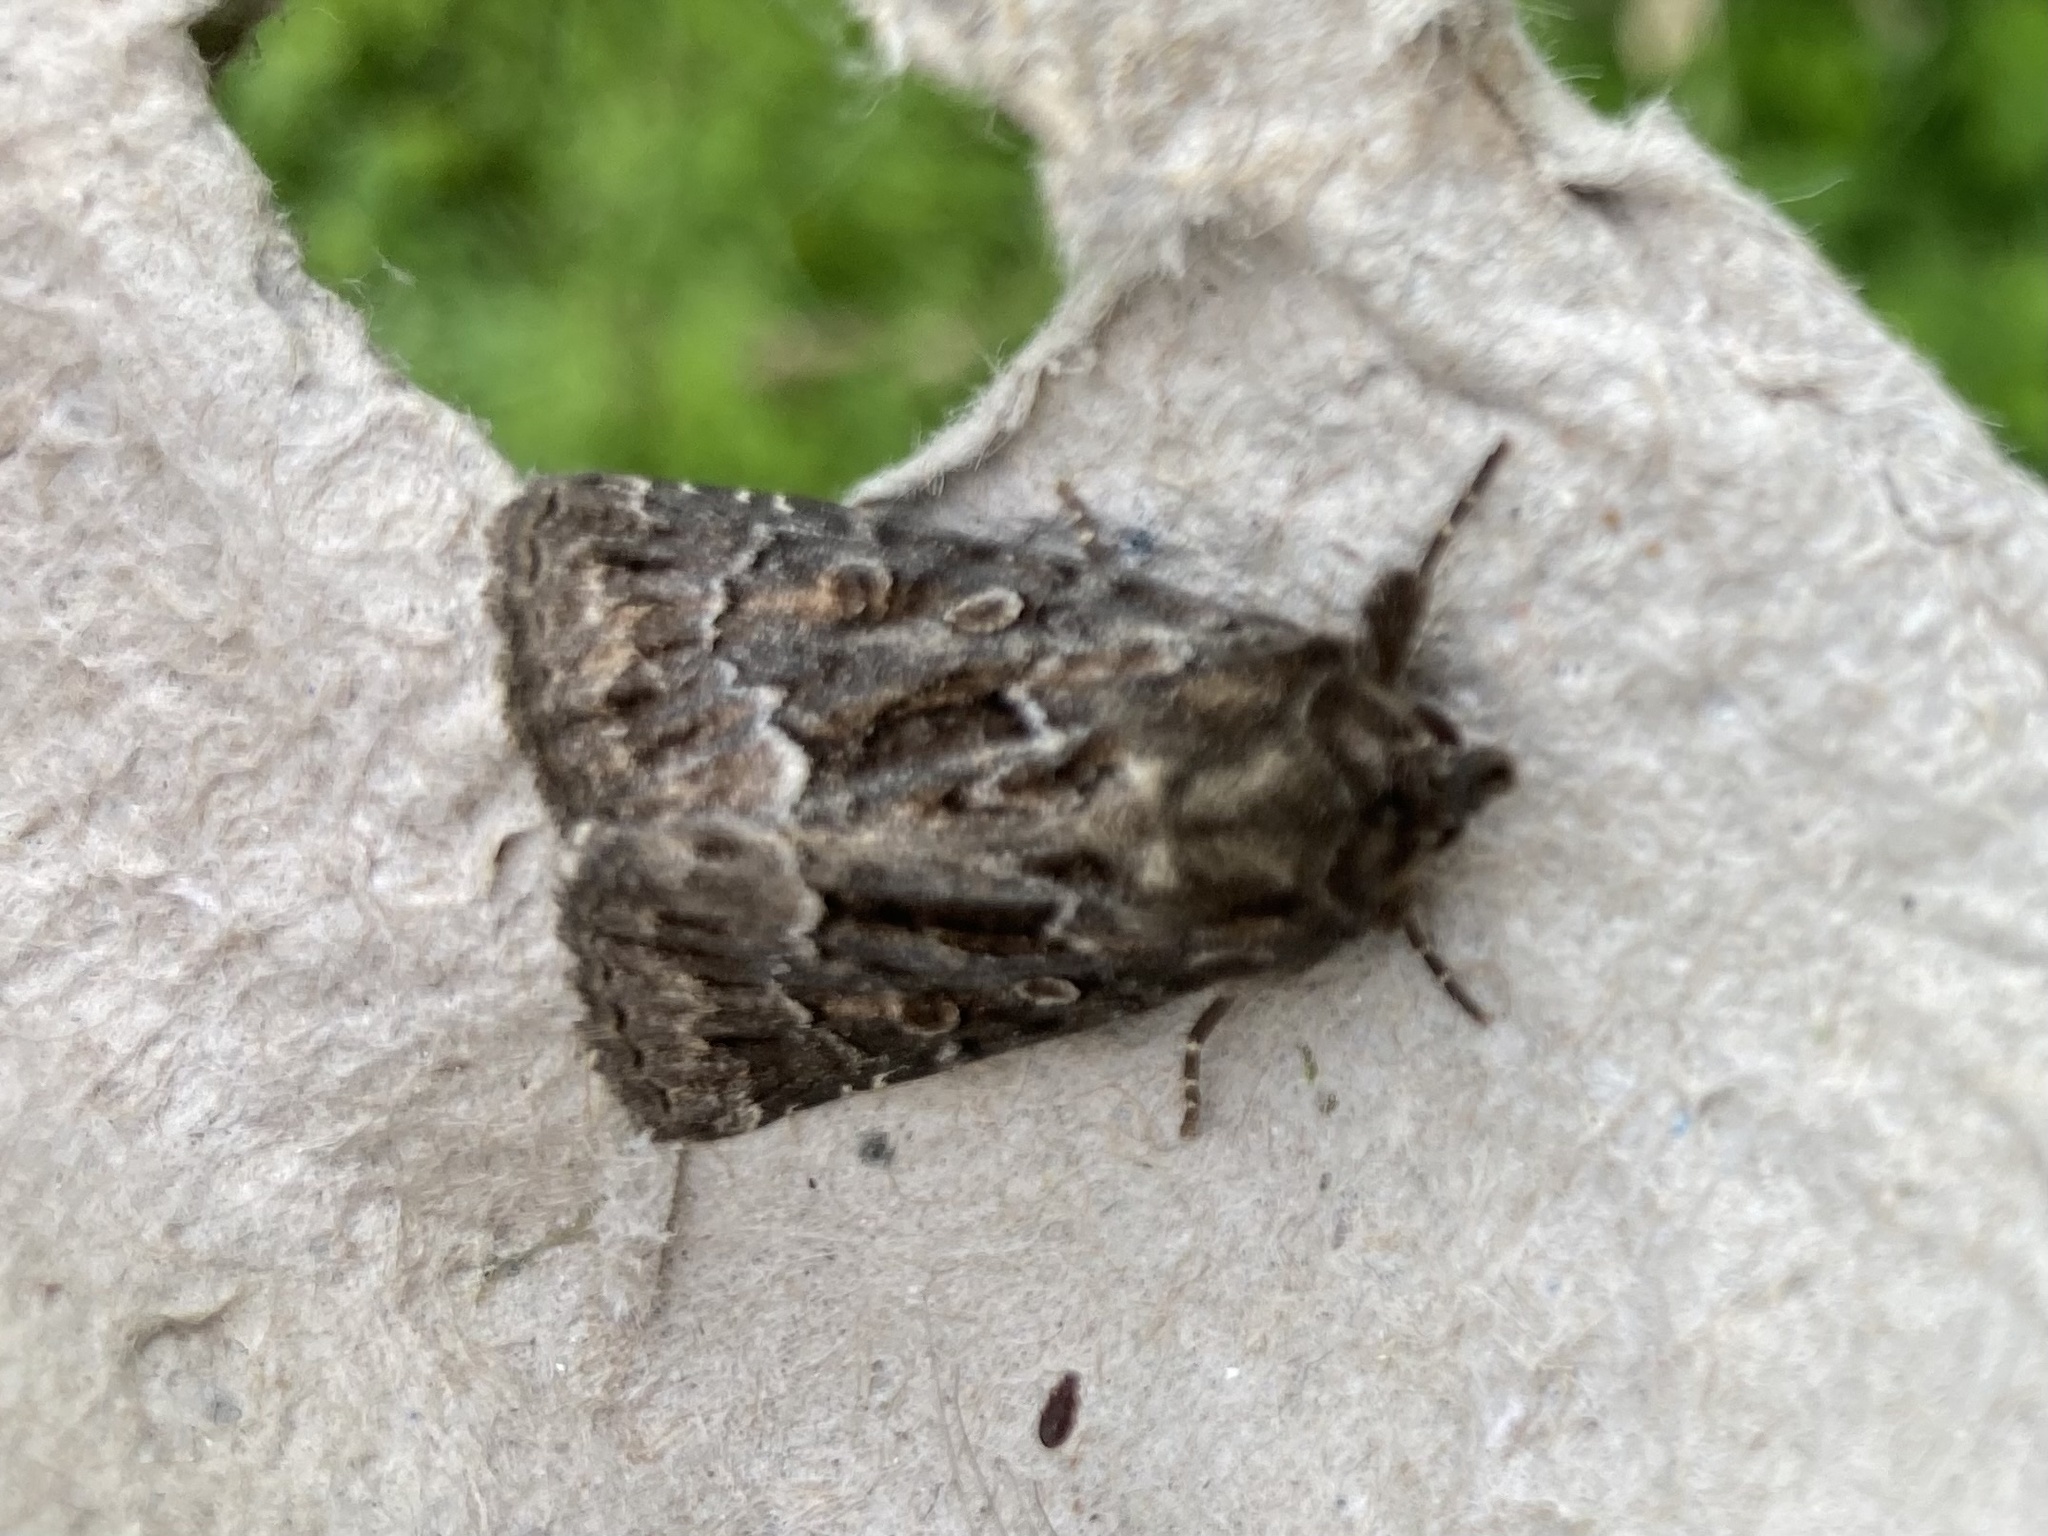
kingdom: Animalia
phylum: Arthropoda
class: Insecta
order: Lepidoptera
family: Noctuidae
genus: Thalpophila
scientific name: Thalpophila matura
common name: Straw underwing
